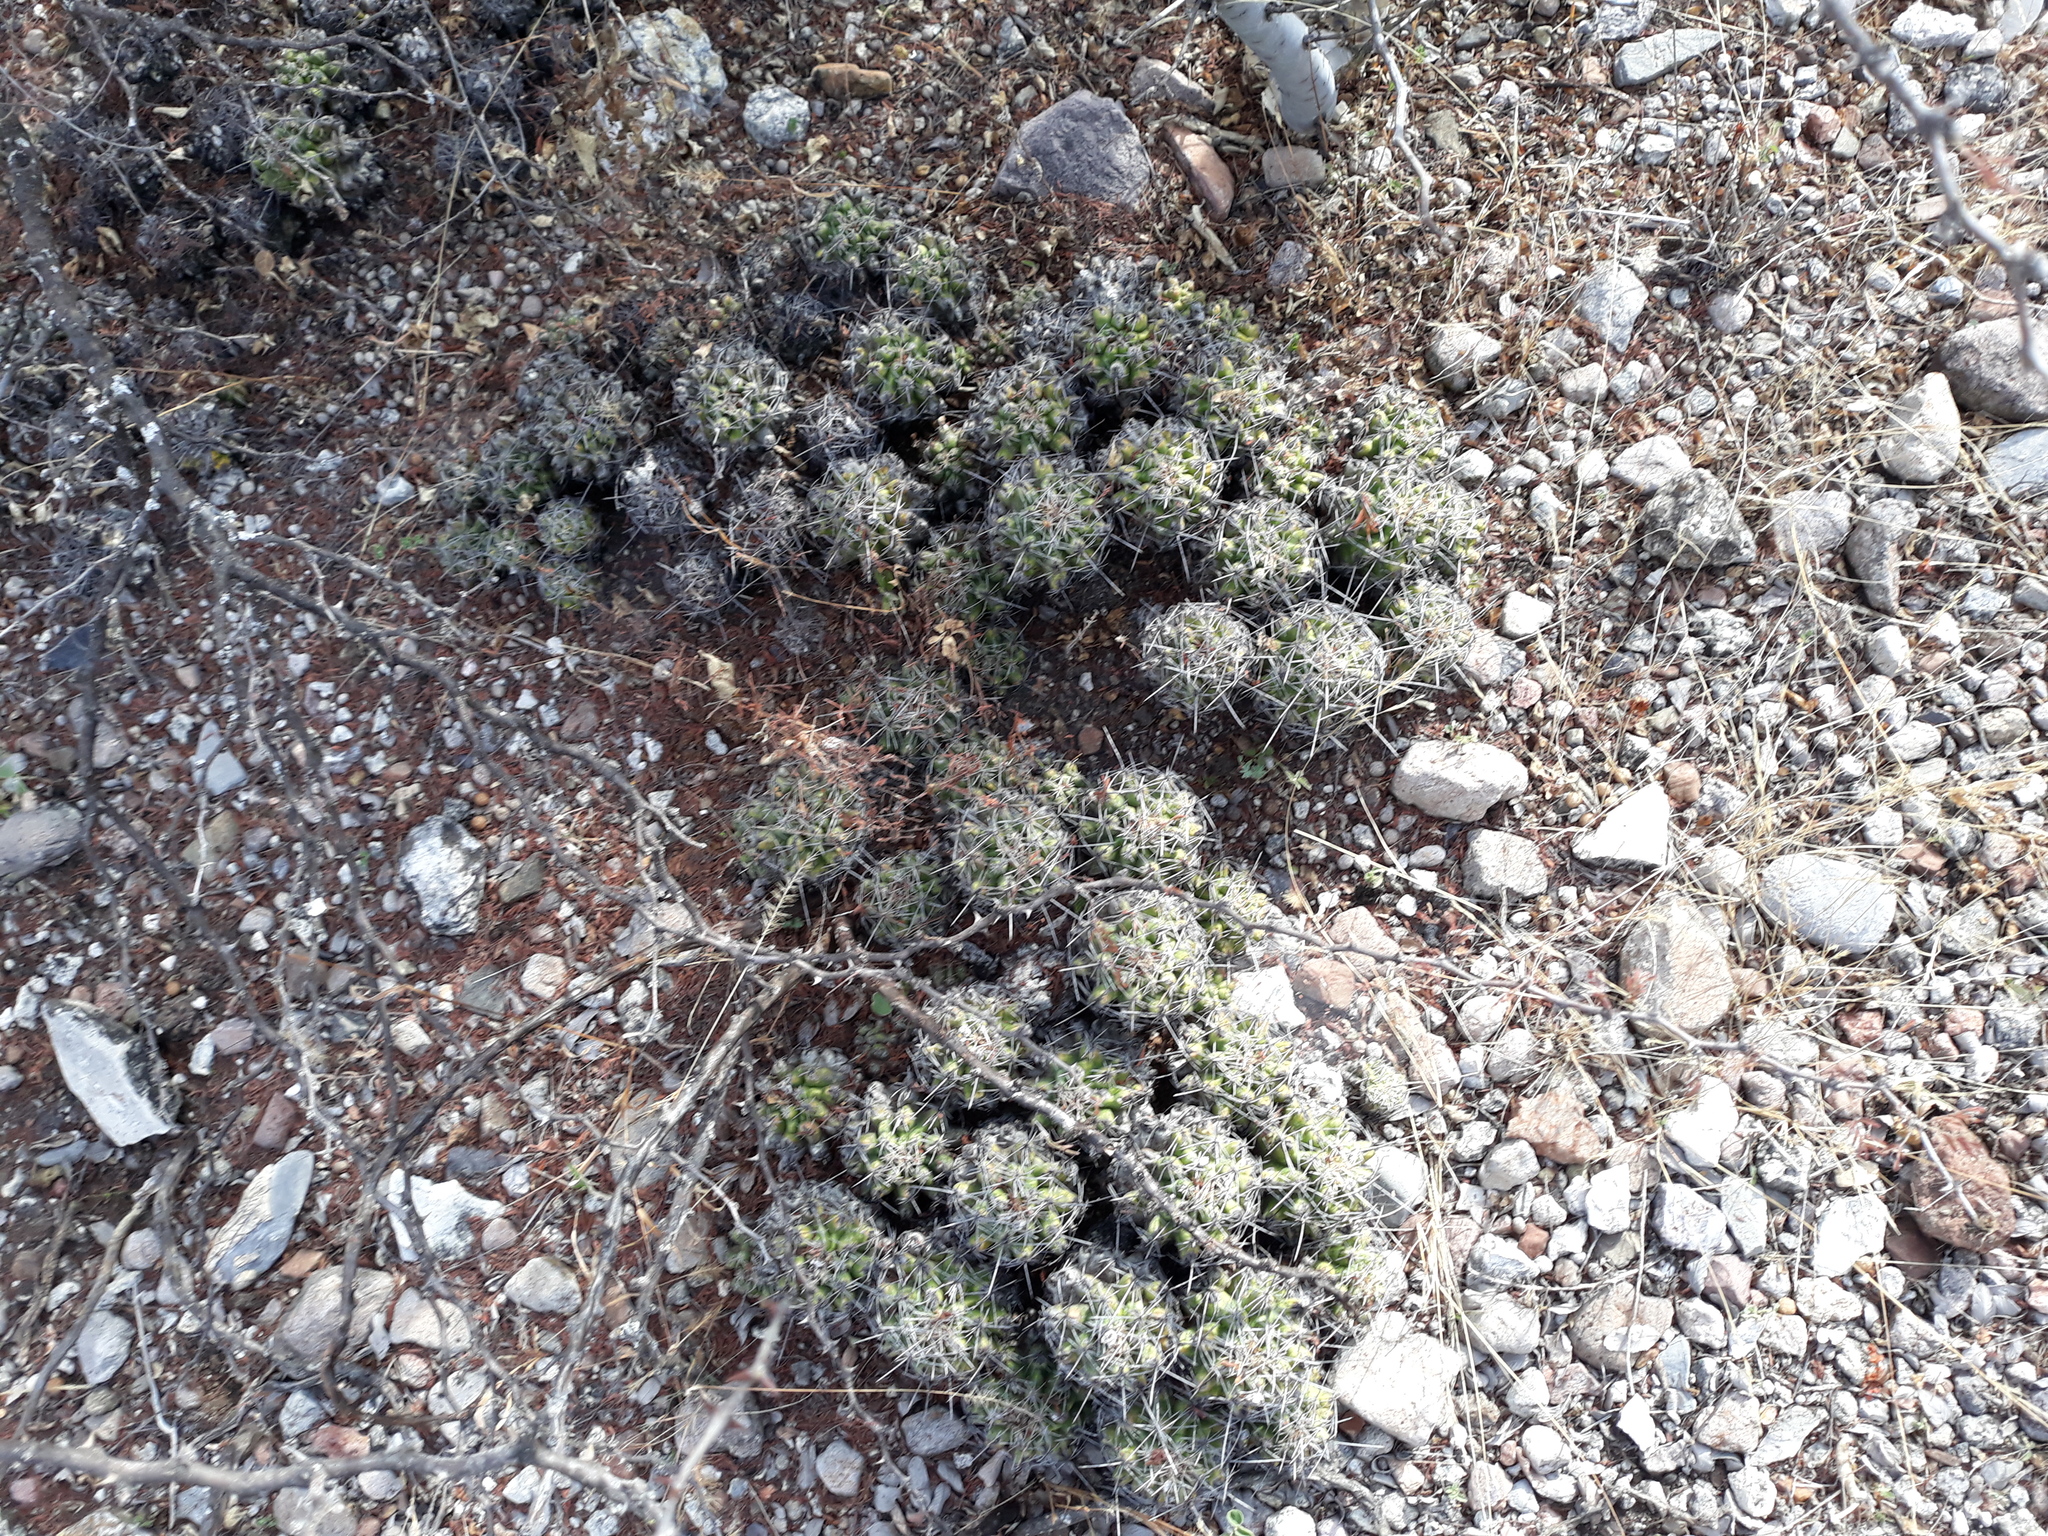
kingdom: Plantae
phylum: Tracheophyta
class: Magnoliopsida
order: Caryophyllales
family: Cactaceae
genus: Thelocactus
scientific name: Thelocactus leucacanthus
